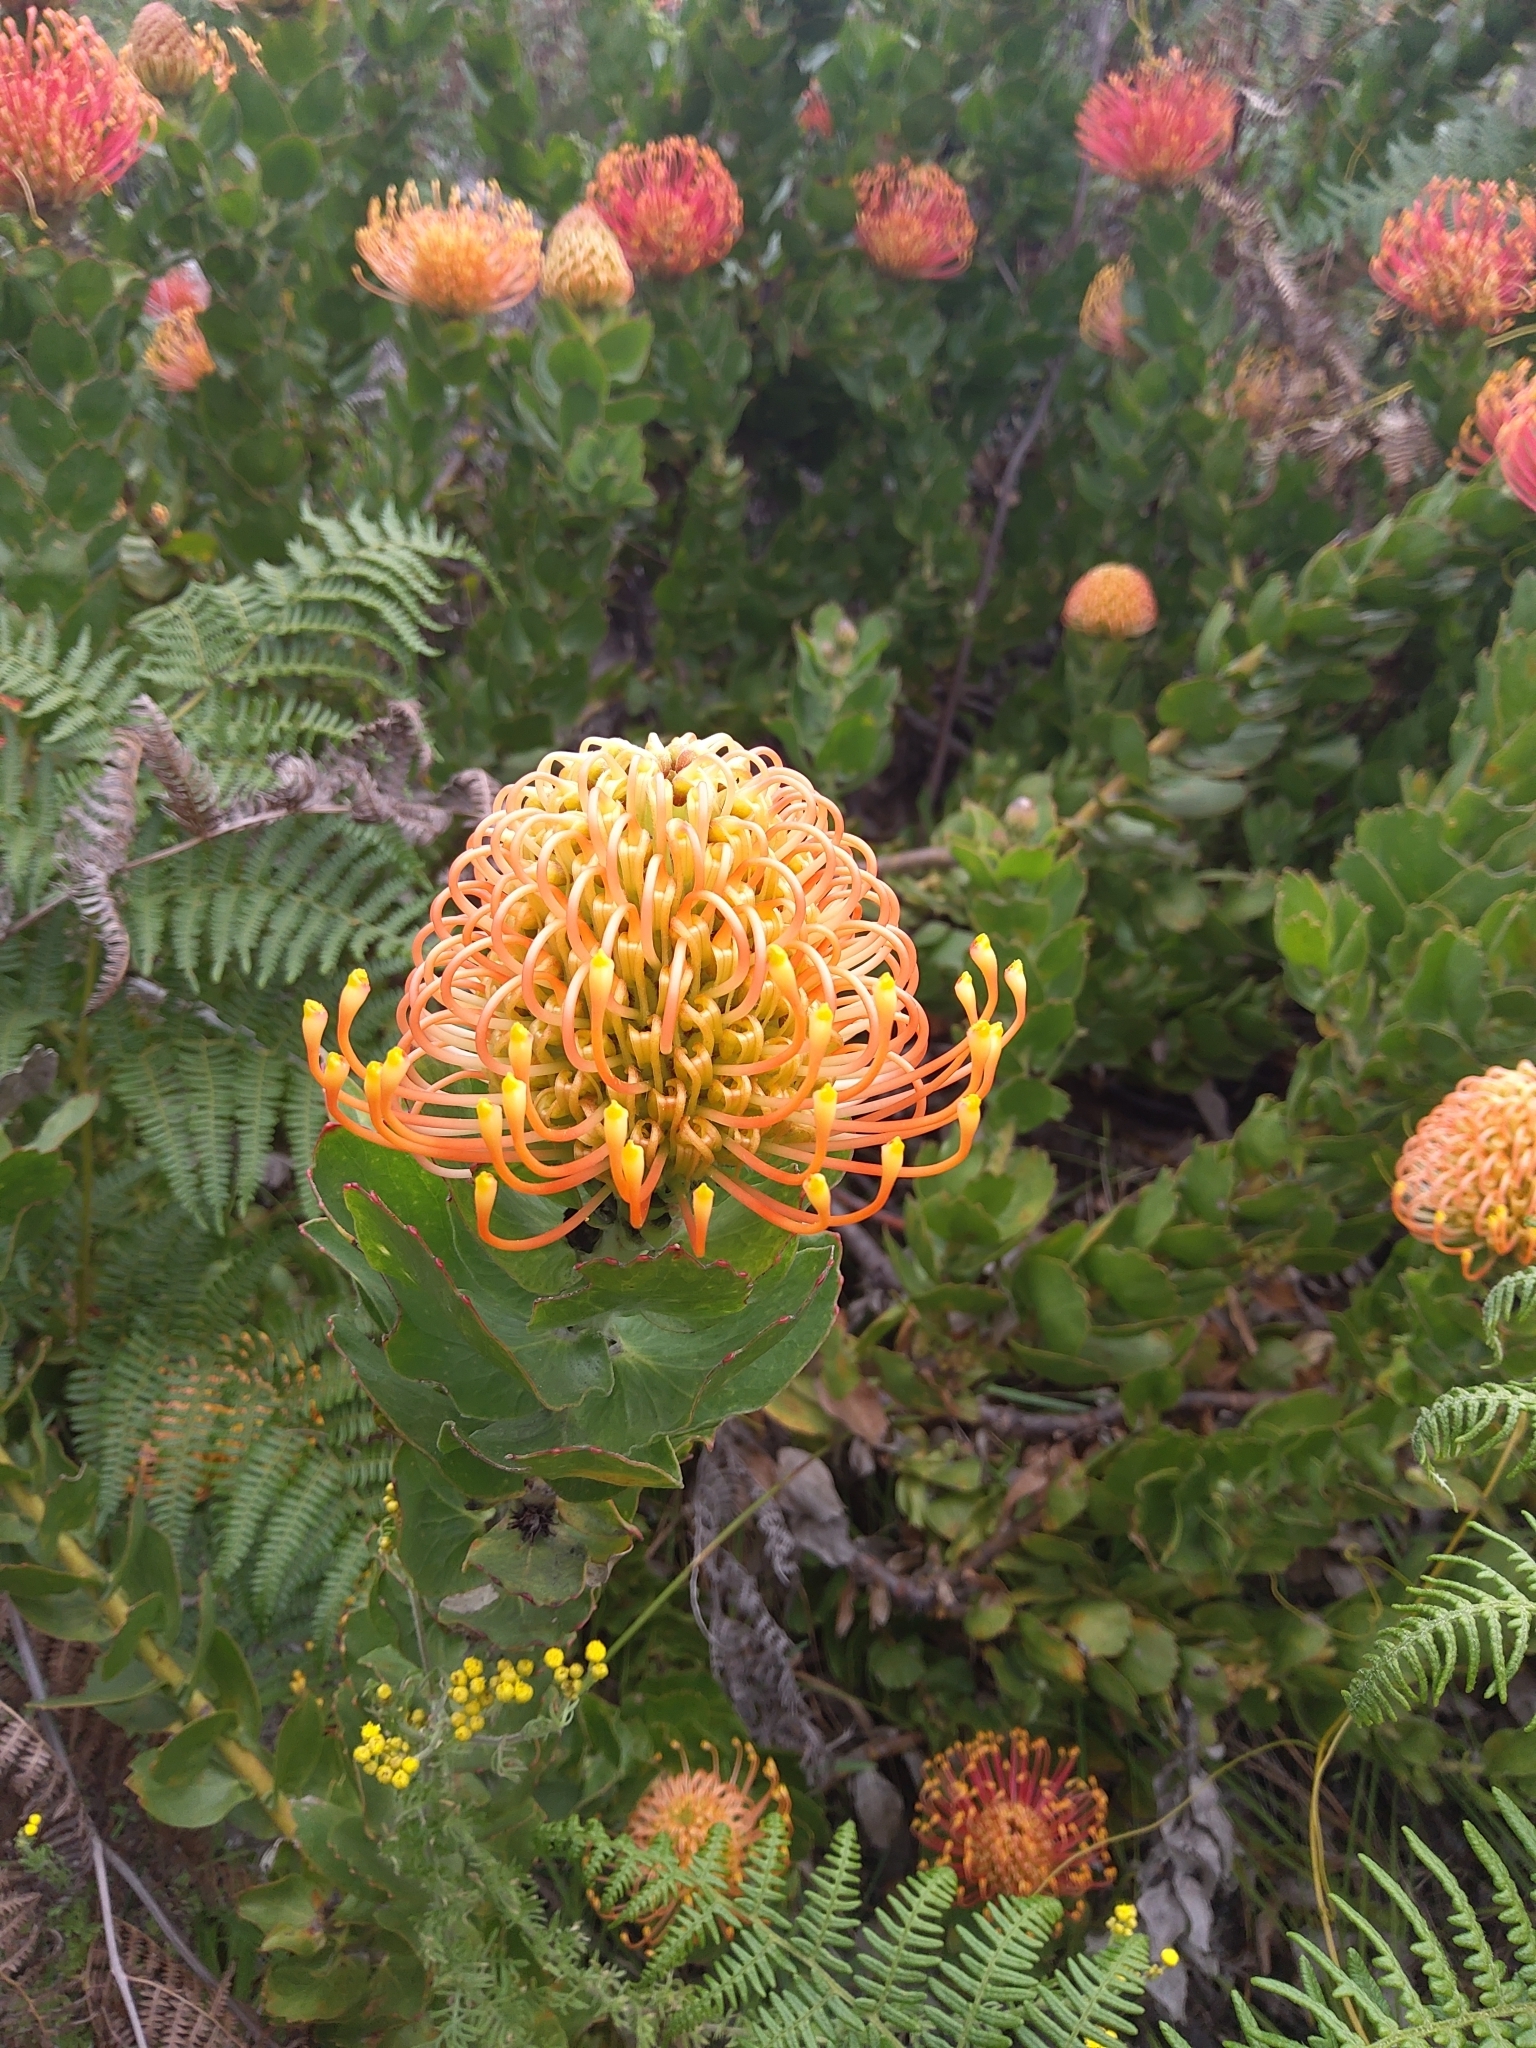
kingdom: Plantae
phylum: Tracheophyta
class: Magnoliopsida
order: Proteales
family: Proteaceae
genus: Leucospermum
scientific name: Leucospermum patersonii
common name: False tree pincushion
